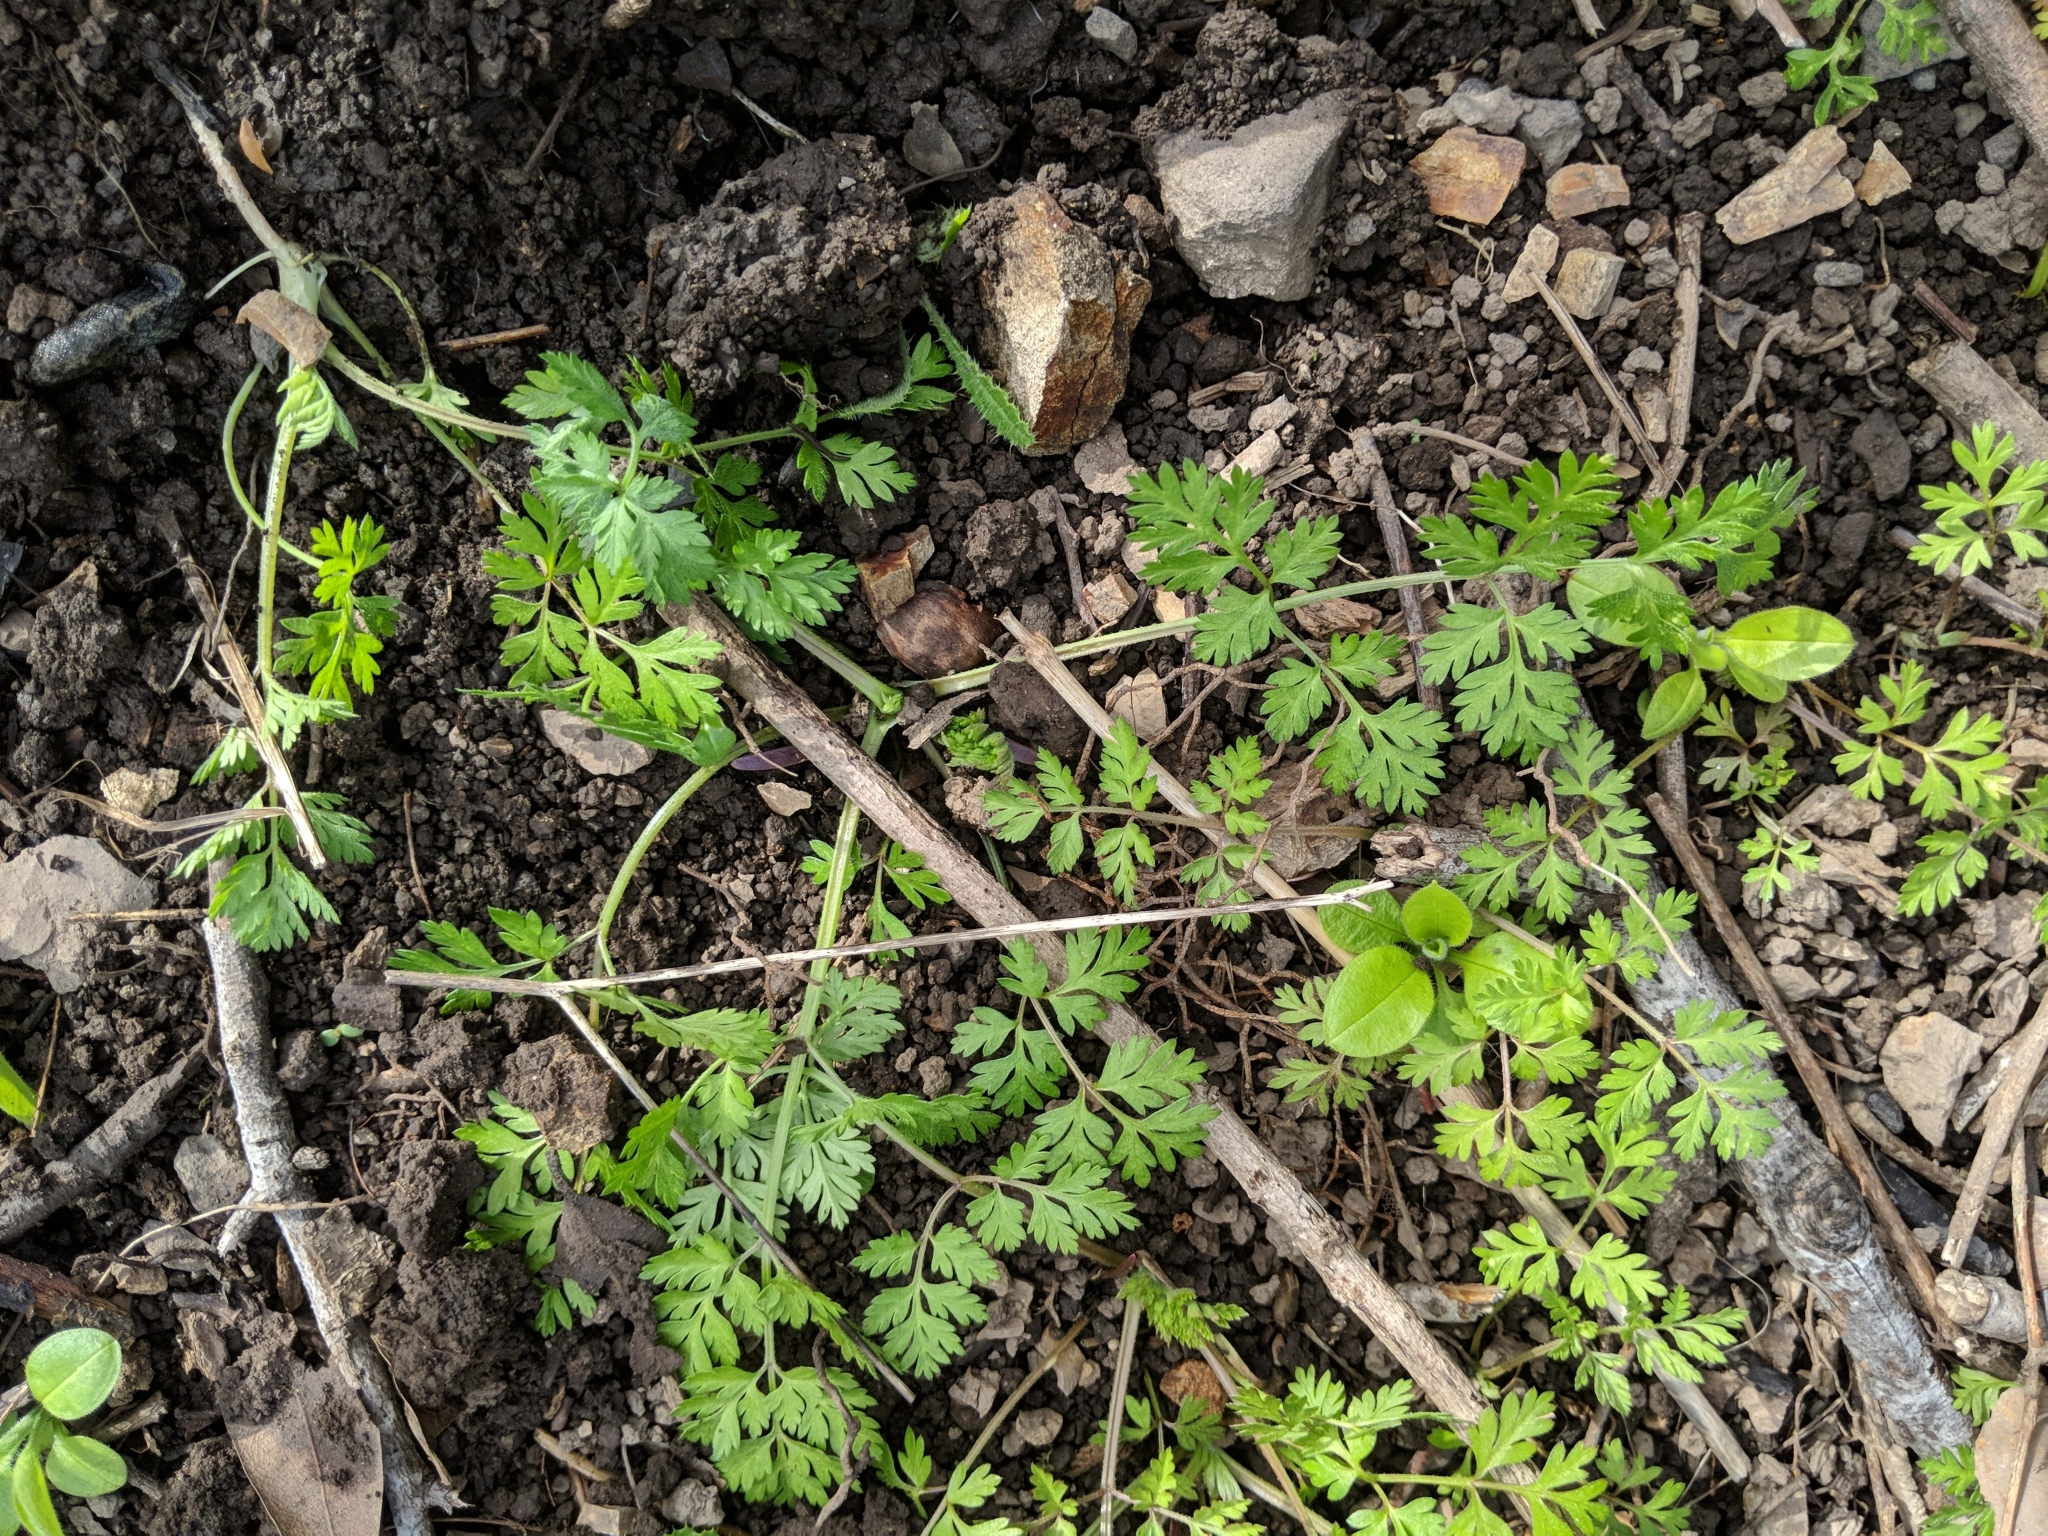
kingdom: Plantae
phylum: Tracheophyta
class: Magnoliopsida
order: Apiales
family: Apiaceae
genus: Conium
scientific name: Conium maculatum
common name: Hemlock
